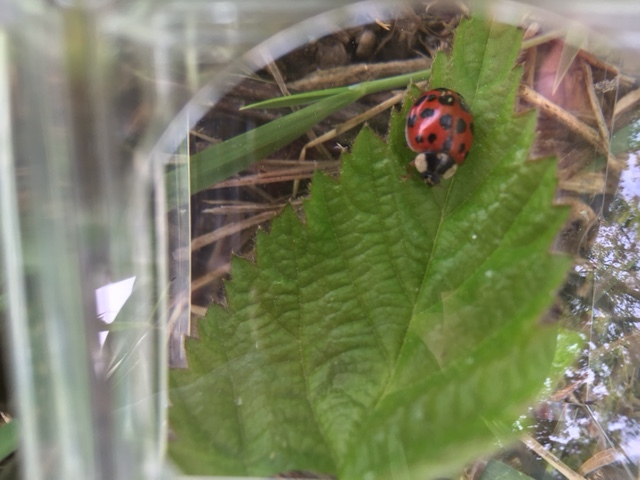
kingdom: Animalia
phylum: Arthropoda
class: Insecta
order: Coleoptera
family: Coccinellidae
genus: Harmonia
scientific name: Harmonia axyridis
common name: Harlequin ladybird
